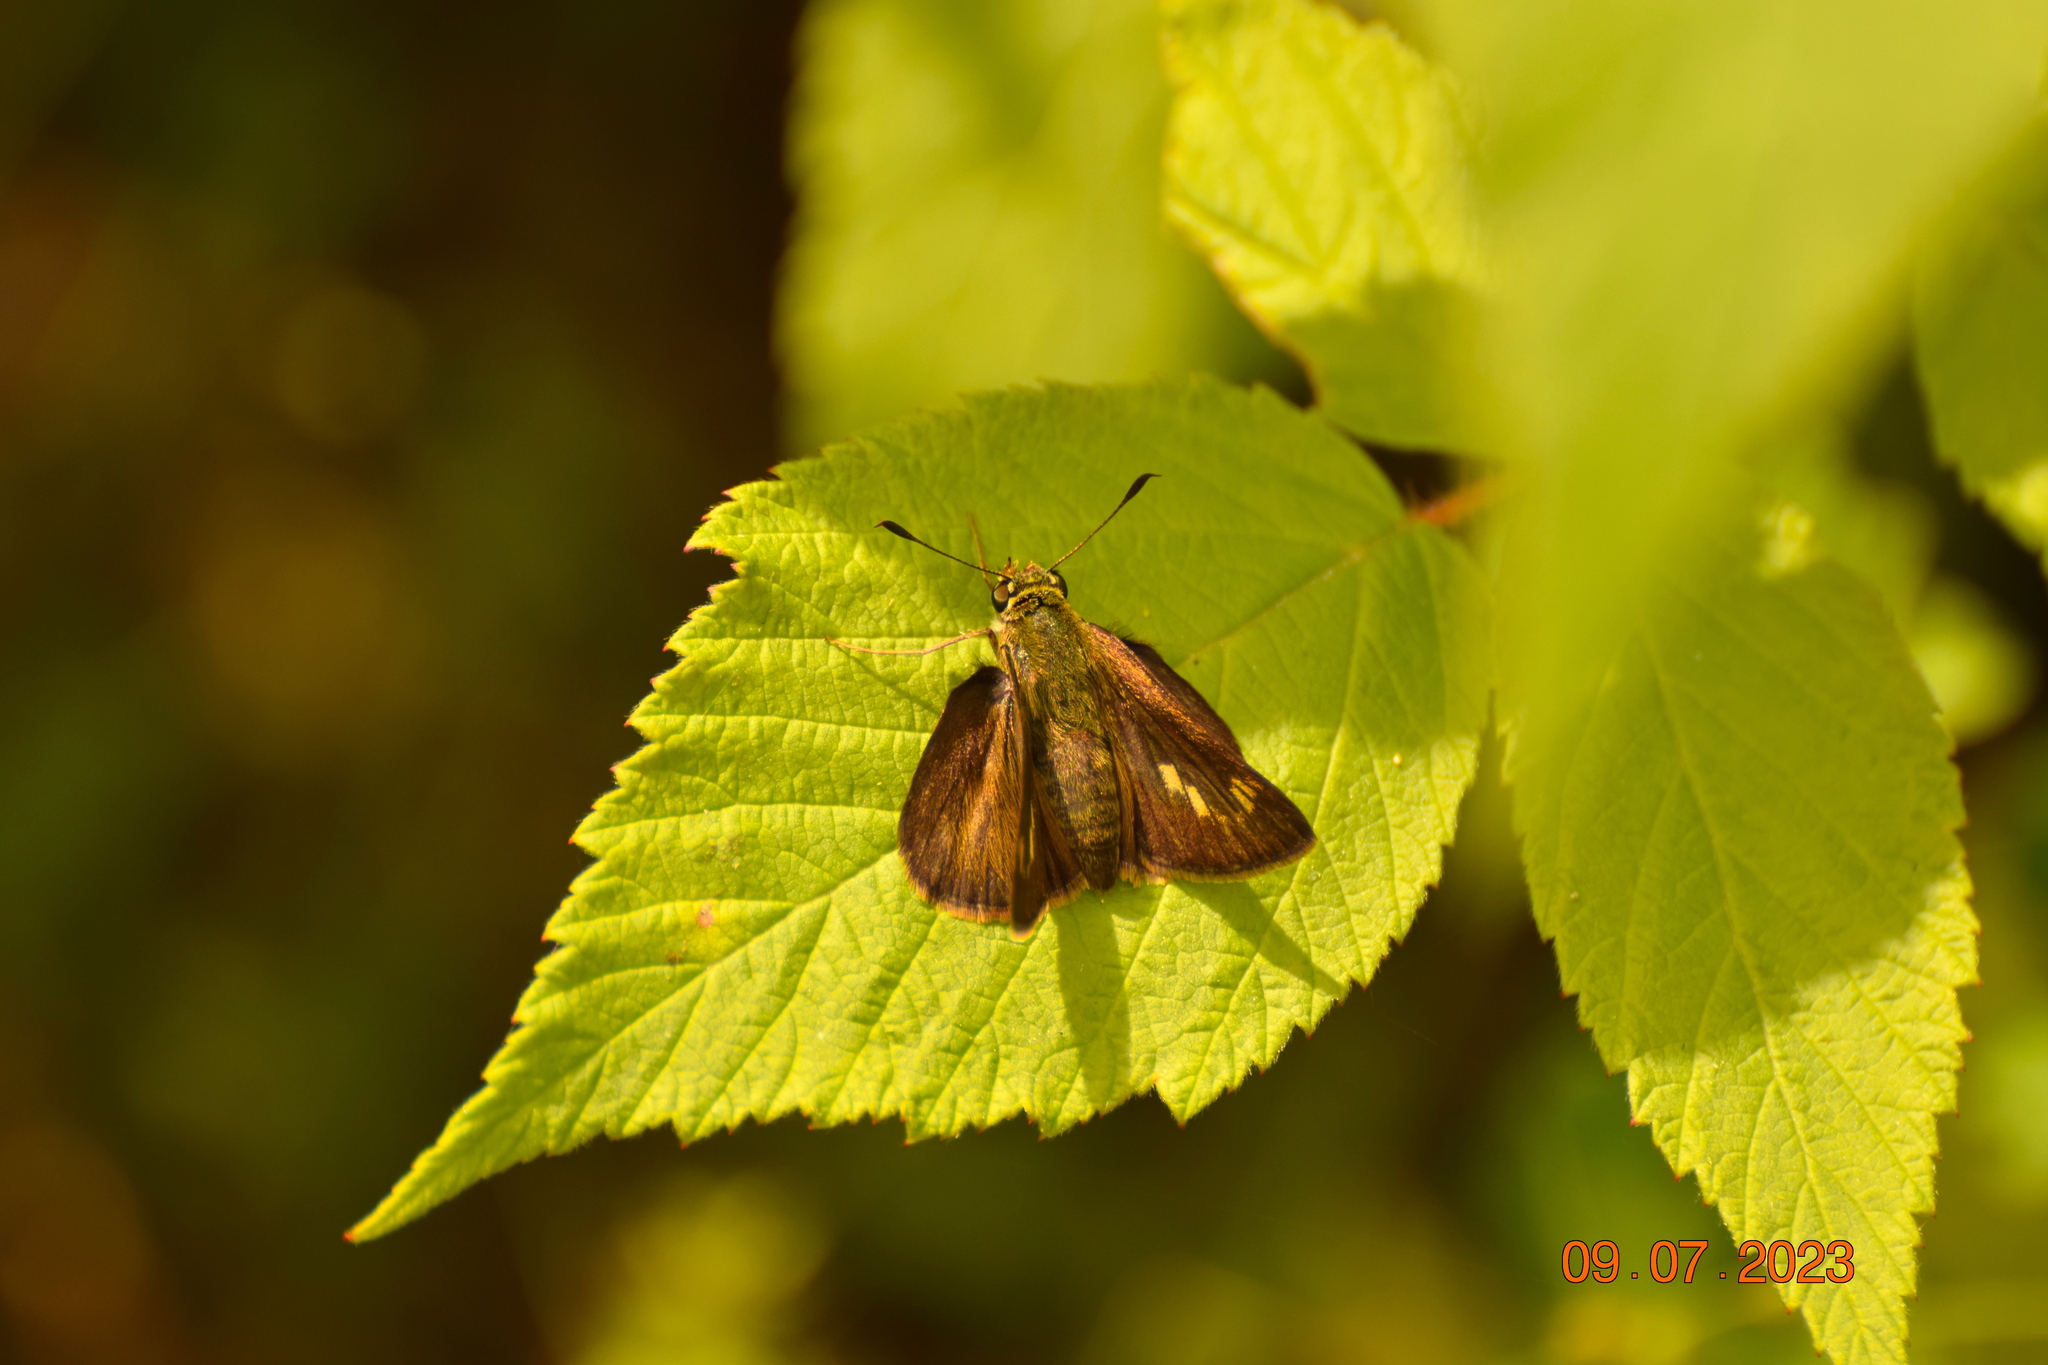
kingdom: Animalia
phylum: Arthropoda
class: Insecta
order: Lepidoptera
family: Hesperiidae
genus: Polites
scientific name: Polites egeremet
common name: Northern broken-dash
